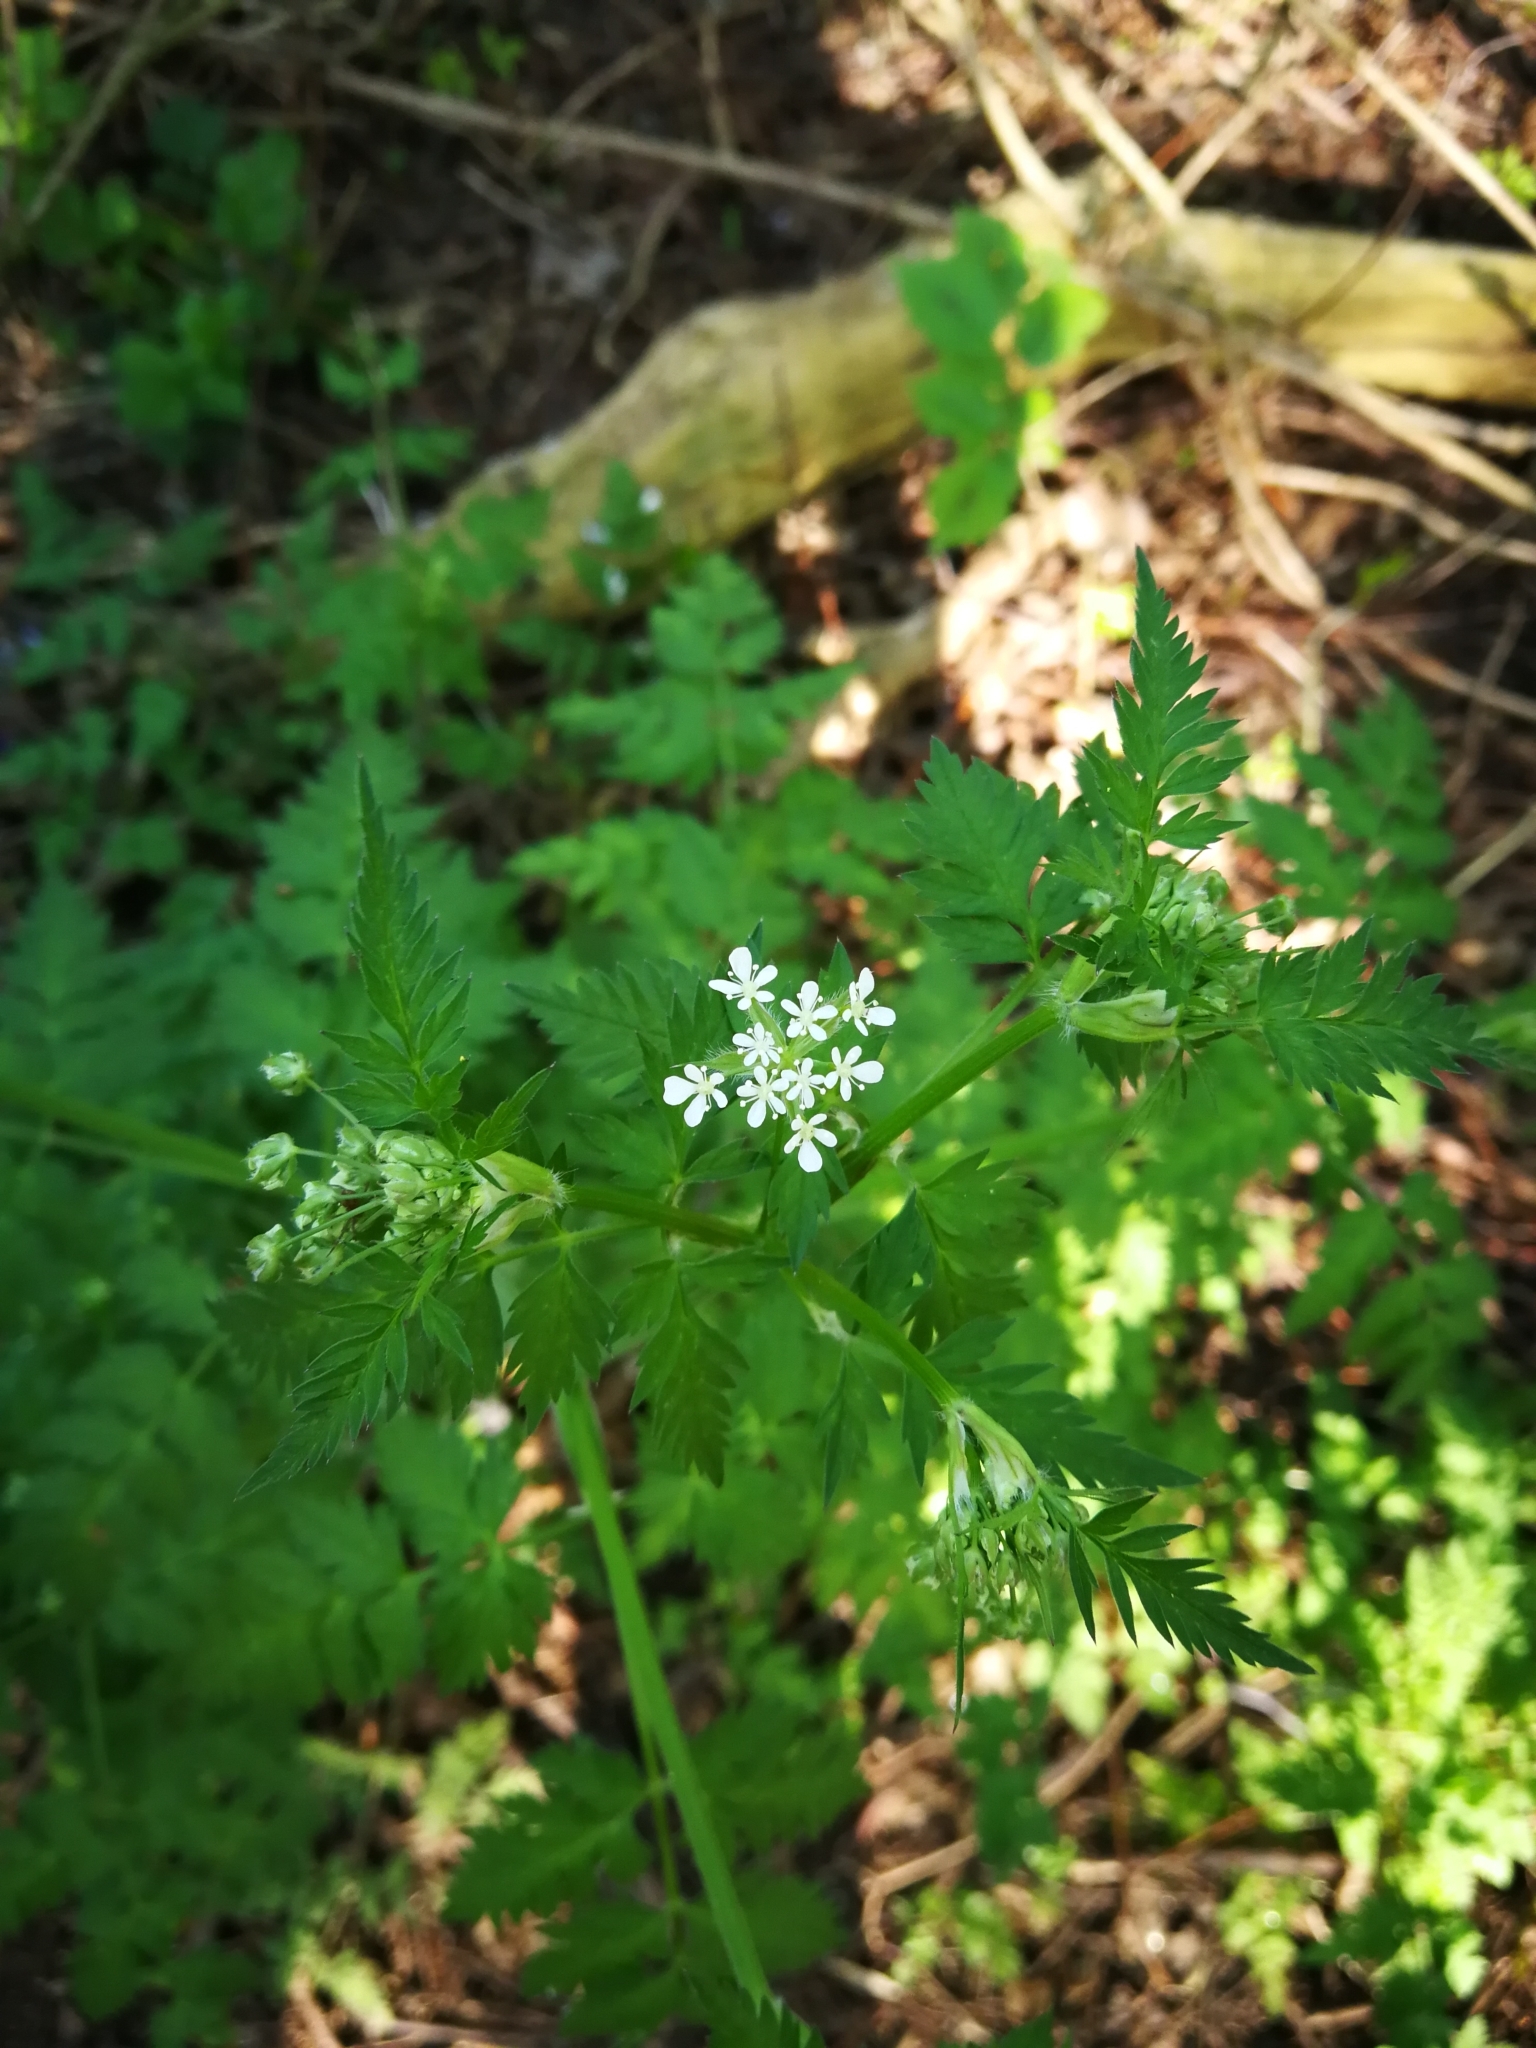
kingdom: Plantae
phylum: Tracheophyta
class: Magnoliopsida
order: Apiales
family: Apiaceae
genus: Anthriscus
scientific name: Anthriscus sylvestris
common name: Cow parsley
